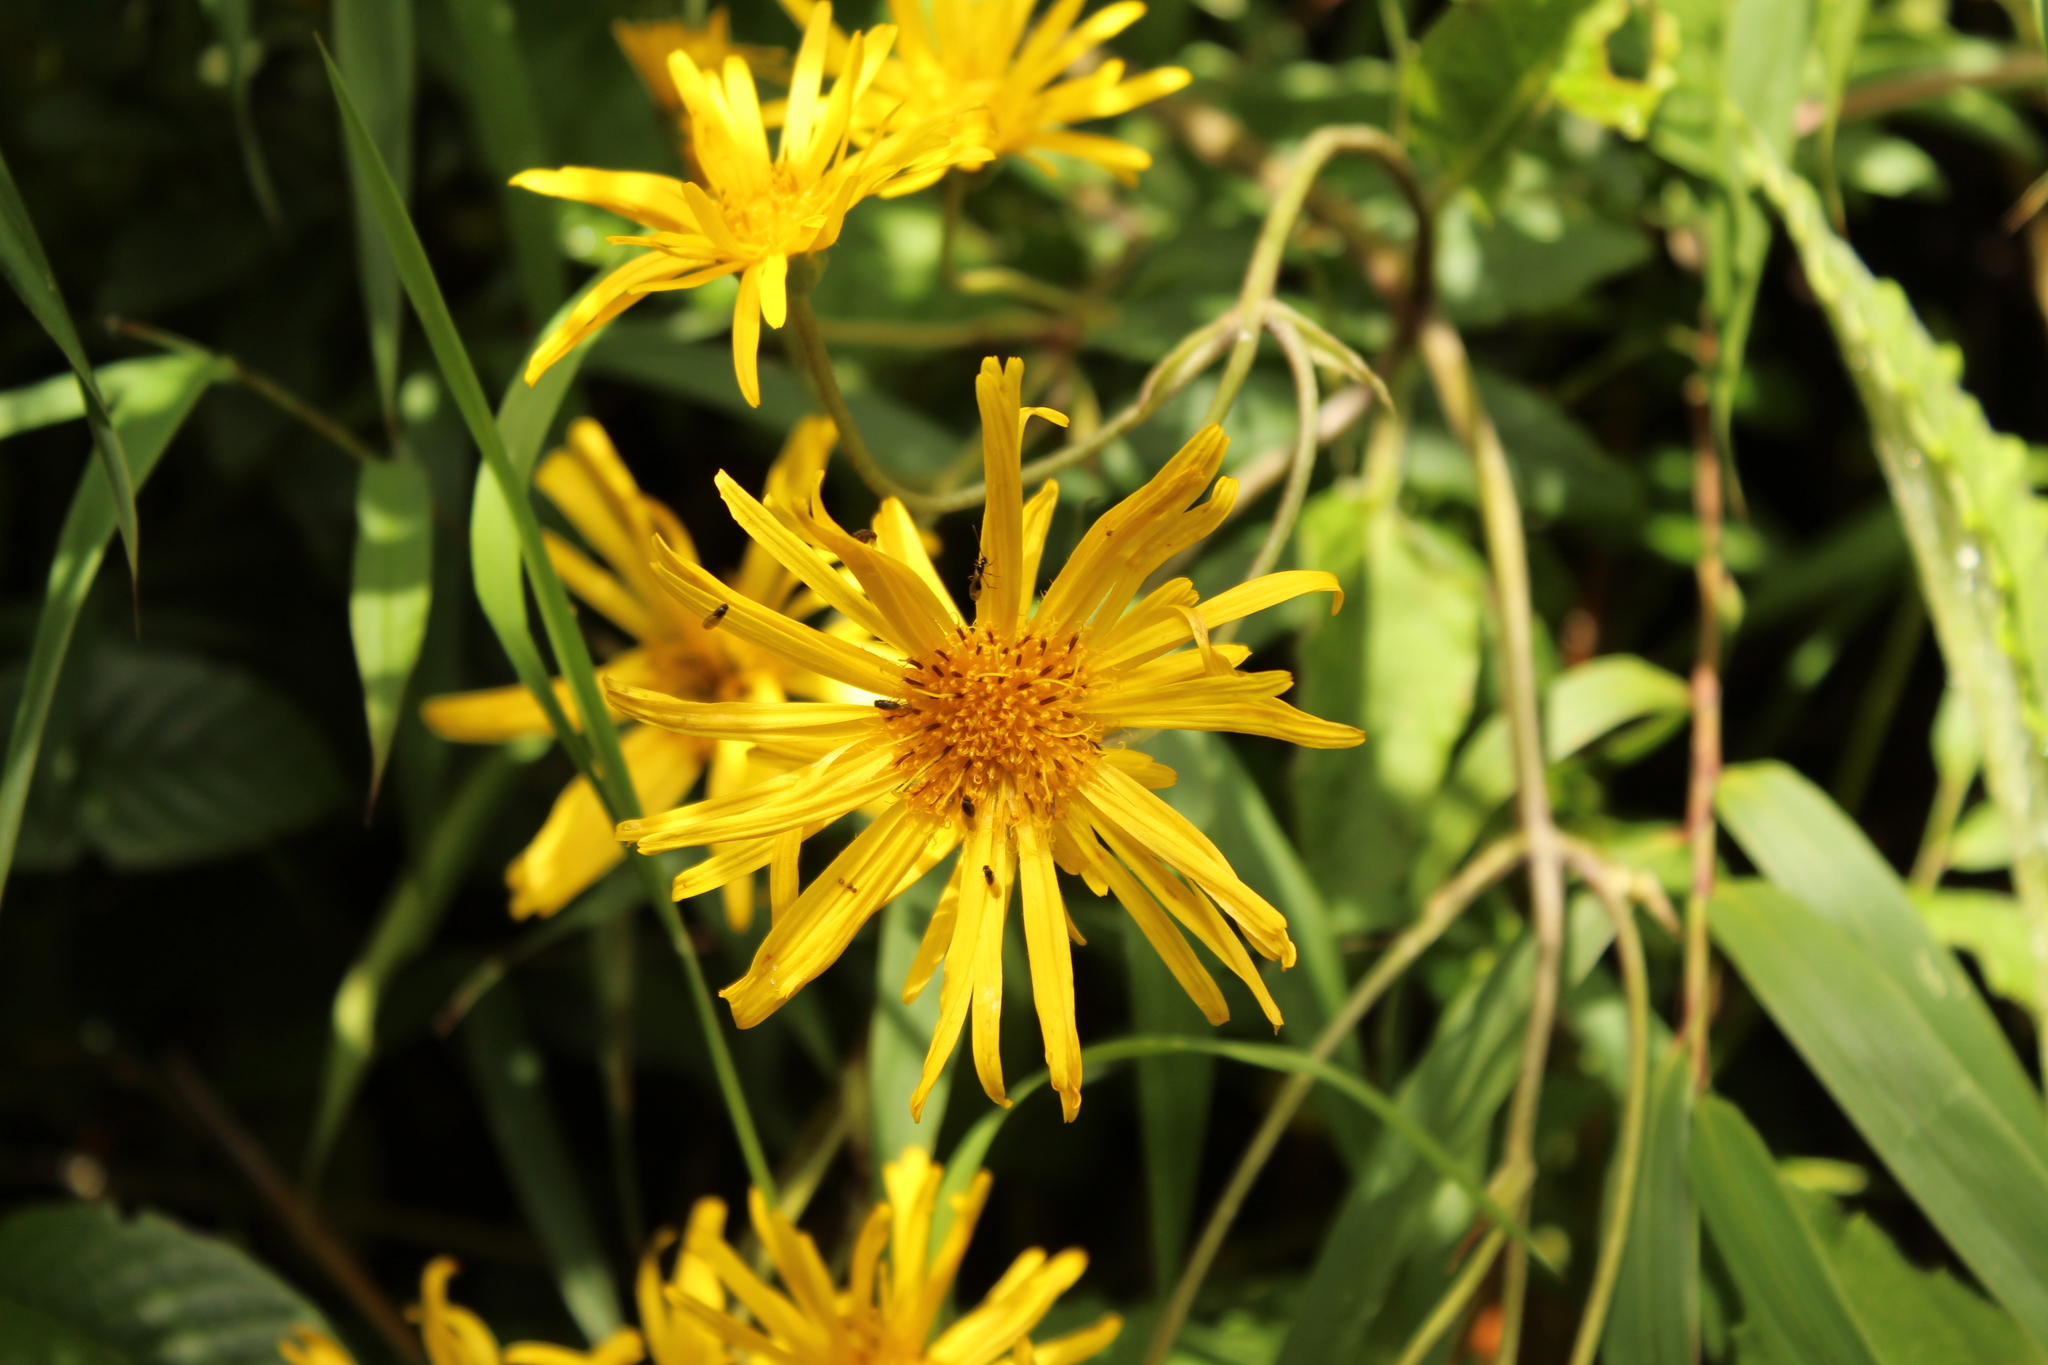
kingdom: Plantae
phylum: Tracheophyta
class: Magnoliopsida
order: Asterales
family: Asteraceae
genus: Munnozia
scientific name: Munnozia senecionidis
